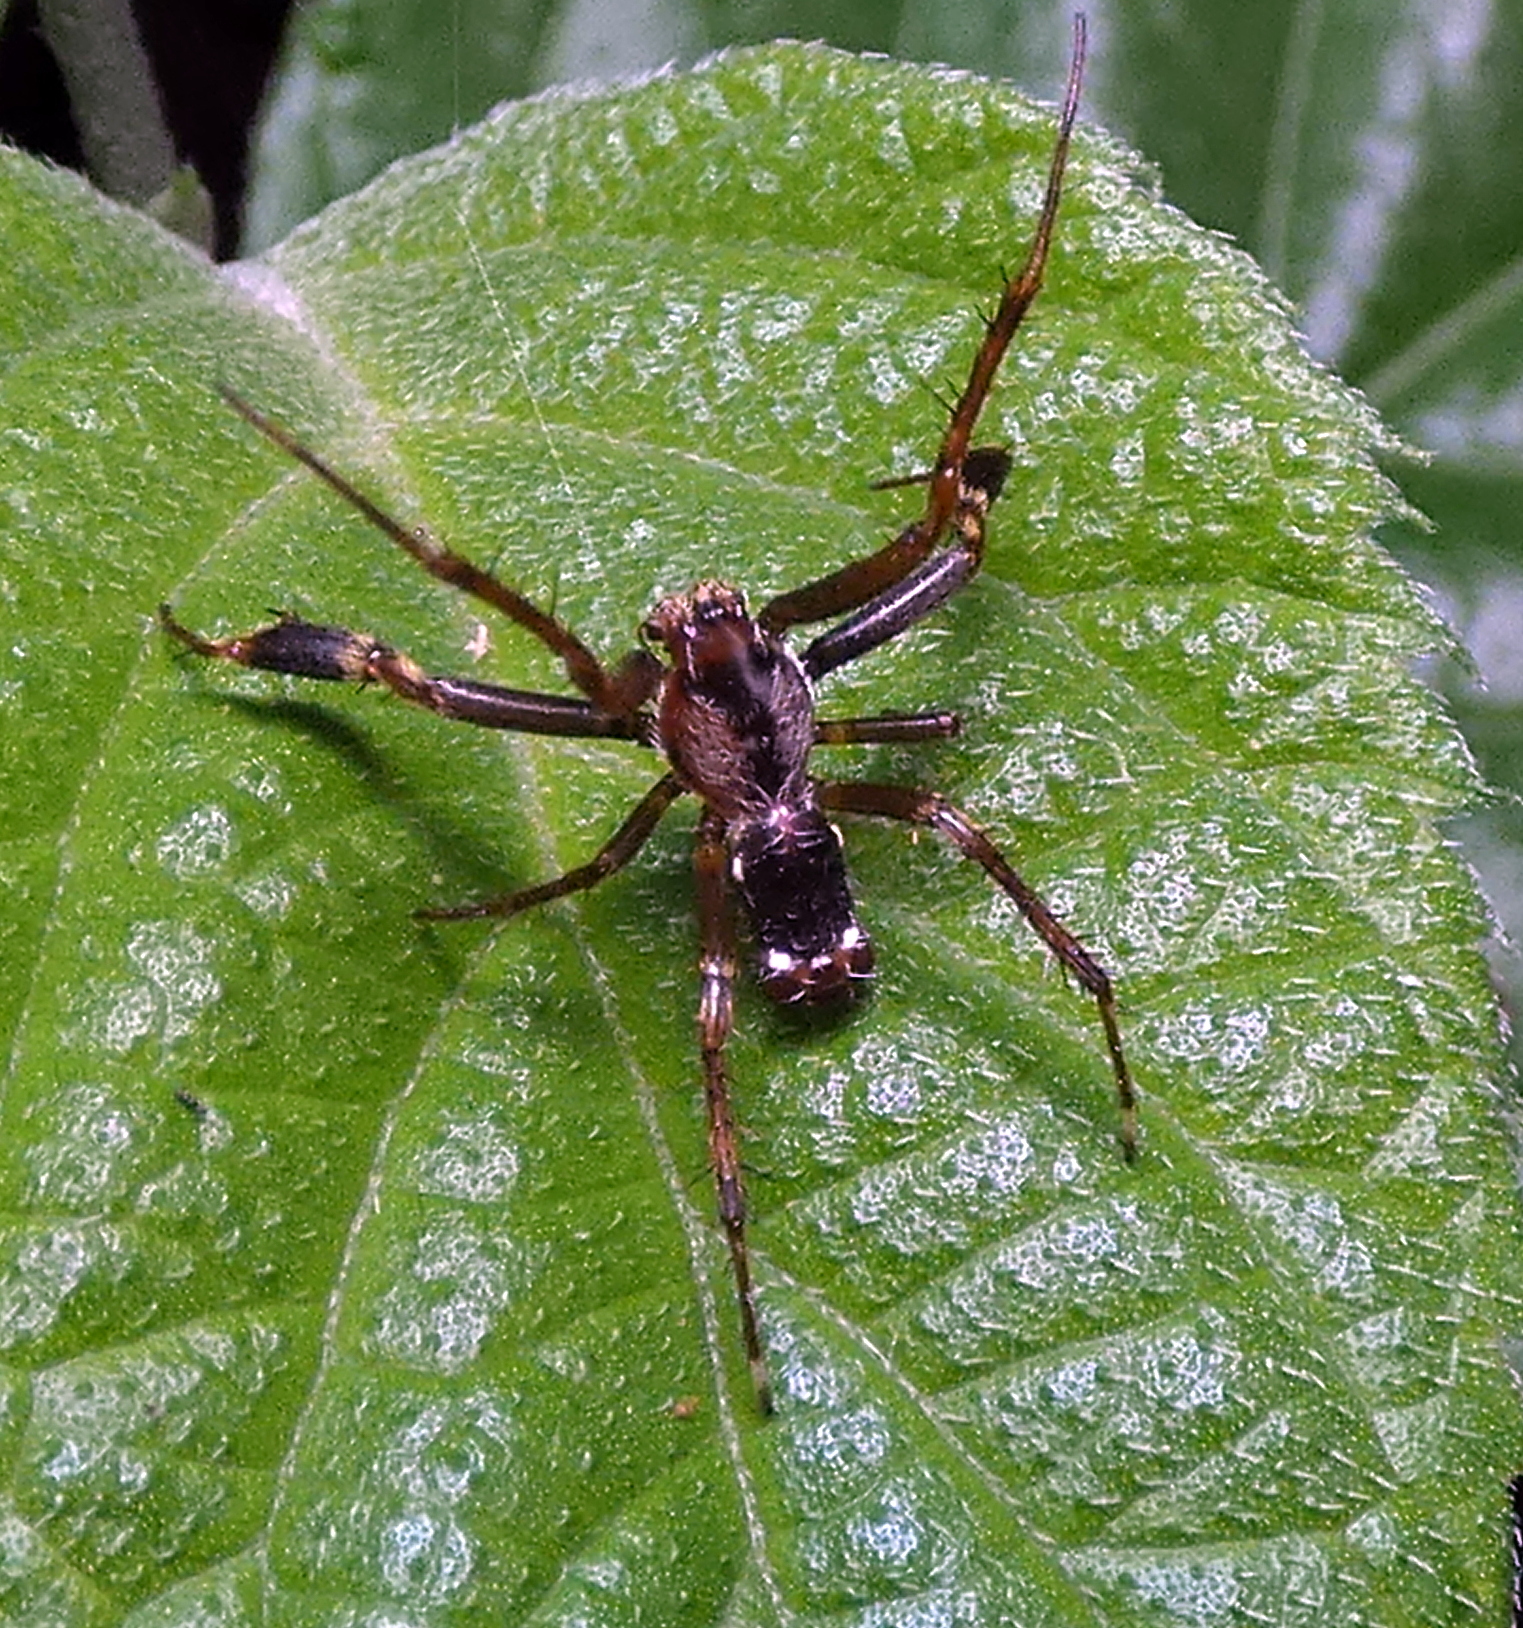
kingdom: Animalia
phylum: Arthropoda
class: Arachnida
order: Araneae
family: Araneidae
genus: Alpaida
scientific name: Alpaida truncata
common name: Orb weavers
